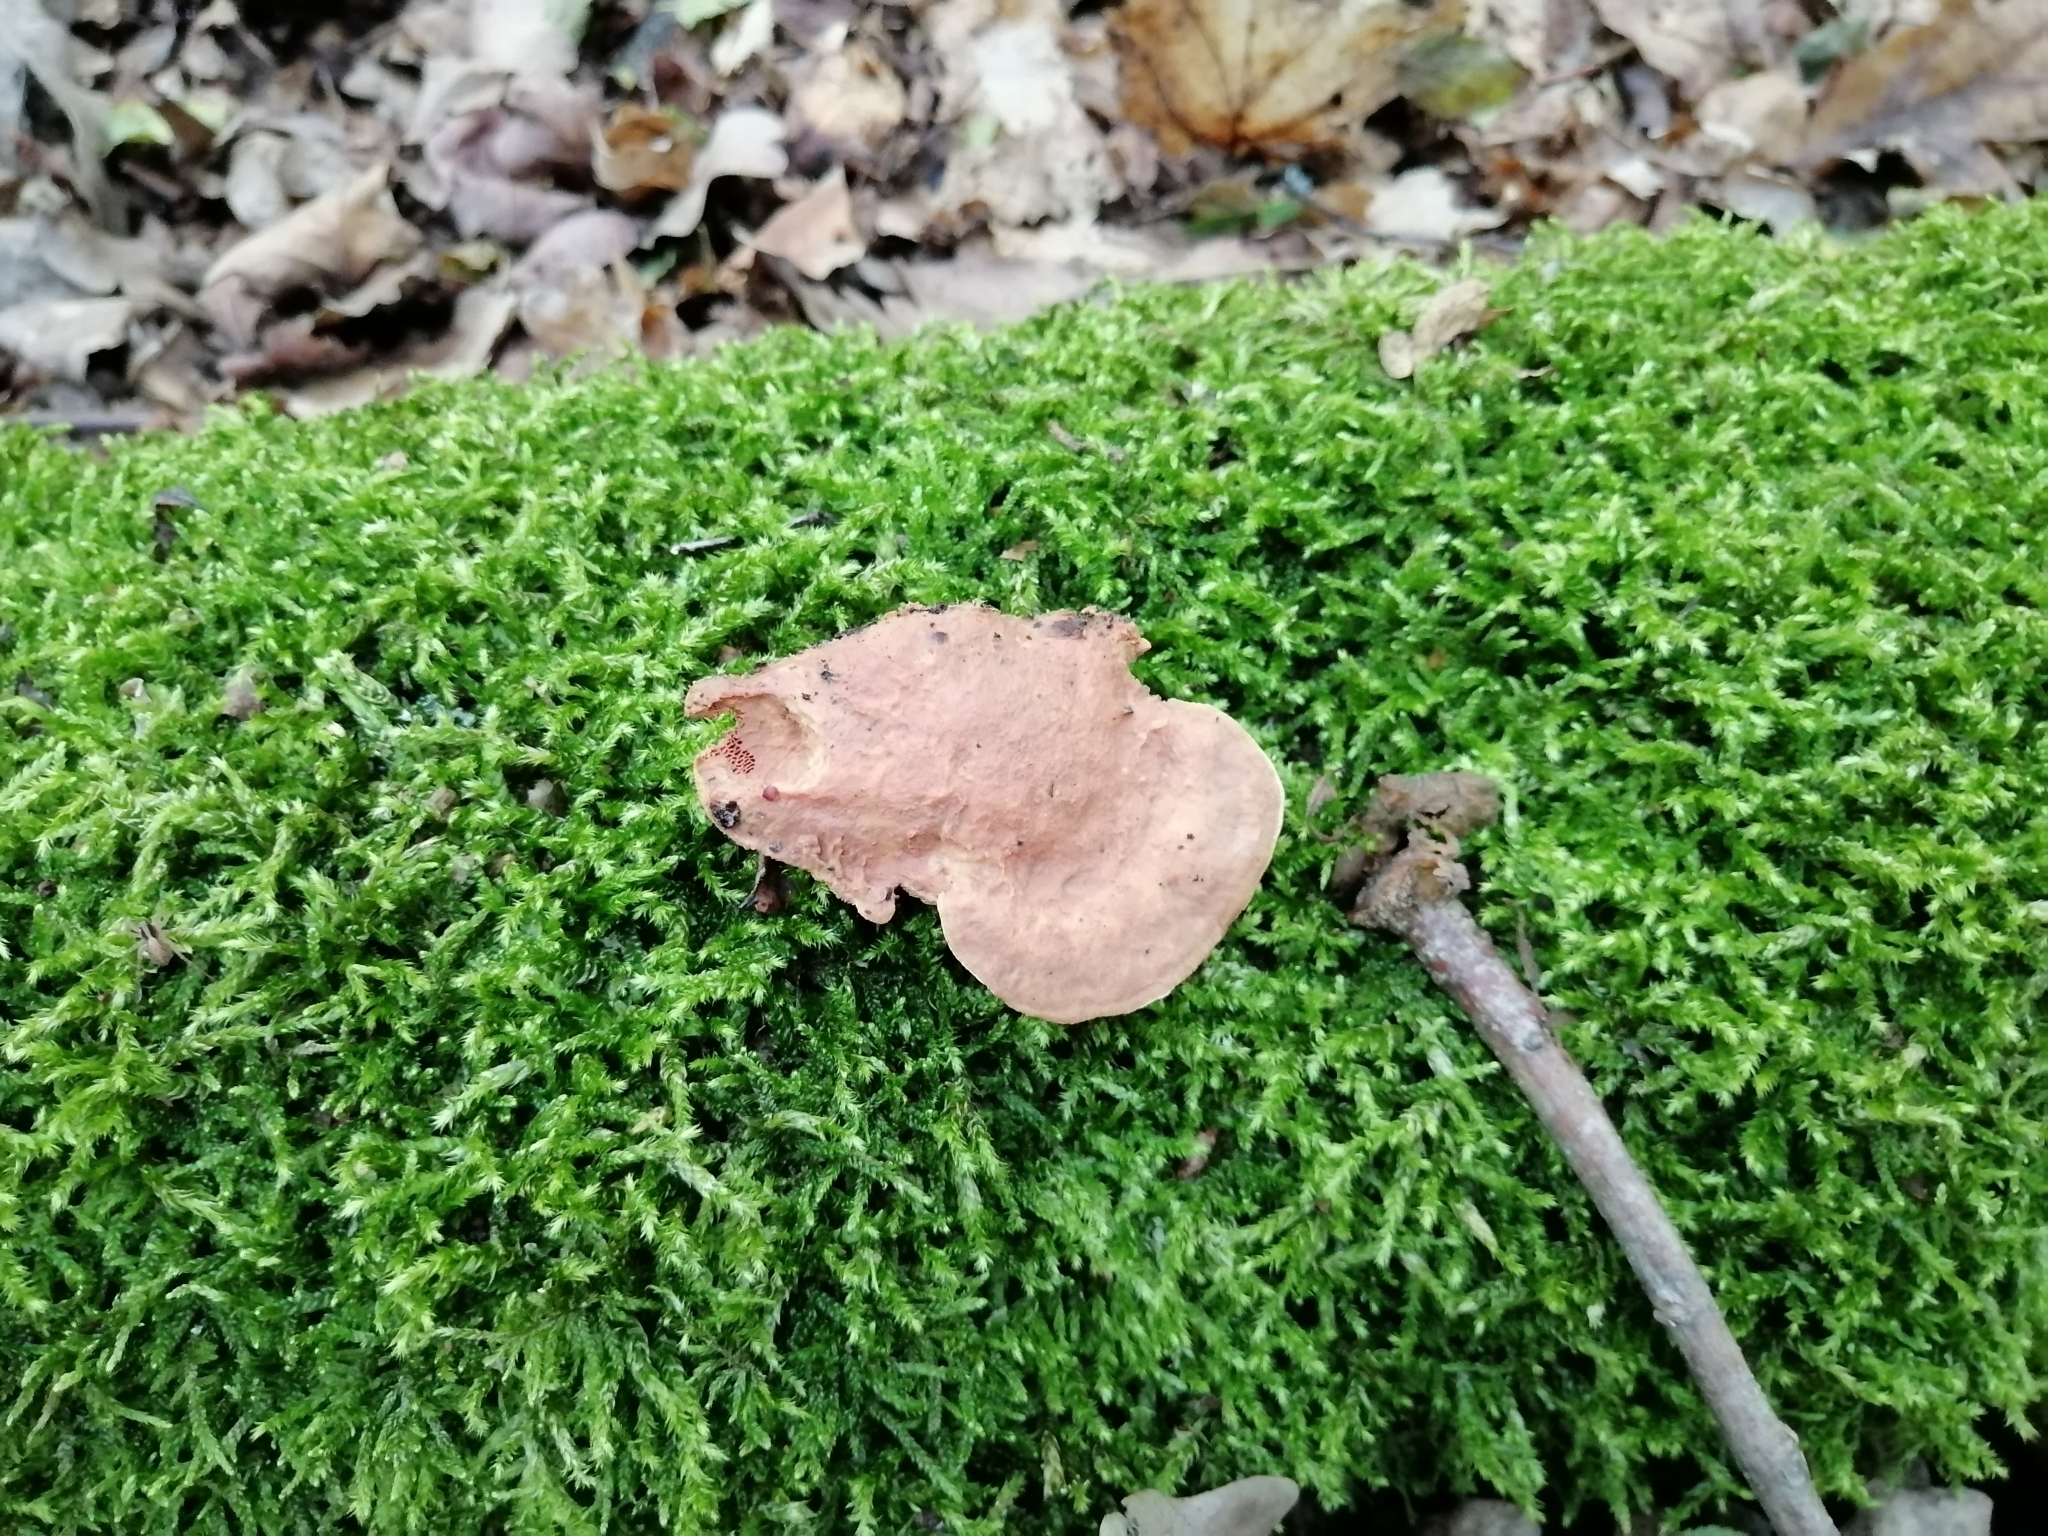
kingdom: Fungi
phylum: Basidiomycota
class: Agaricomycetes
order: Polyporales
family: Phanerochaetaceae
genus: Hapalopilus
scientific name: Hapalopilus rutilans
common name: Tender nesting polypore
